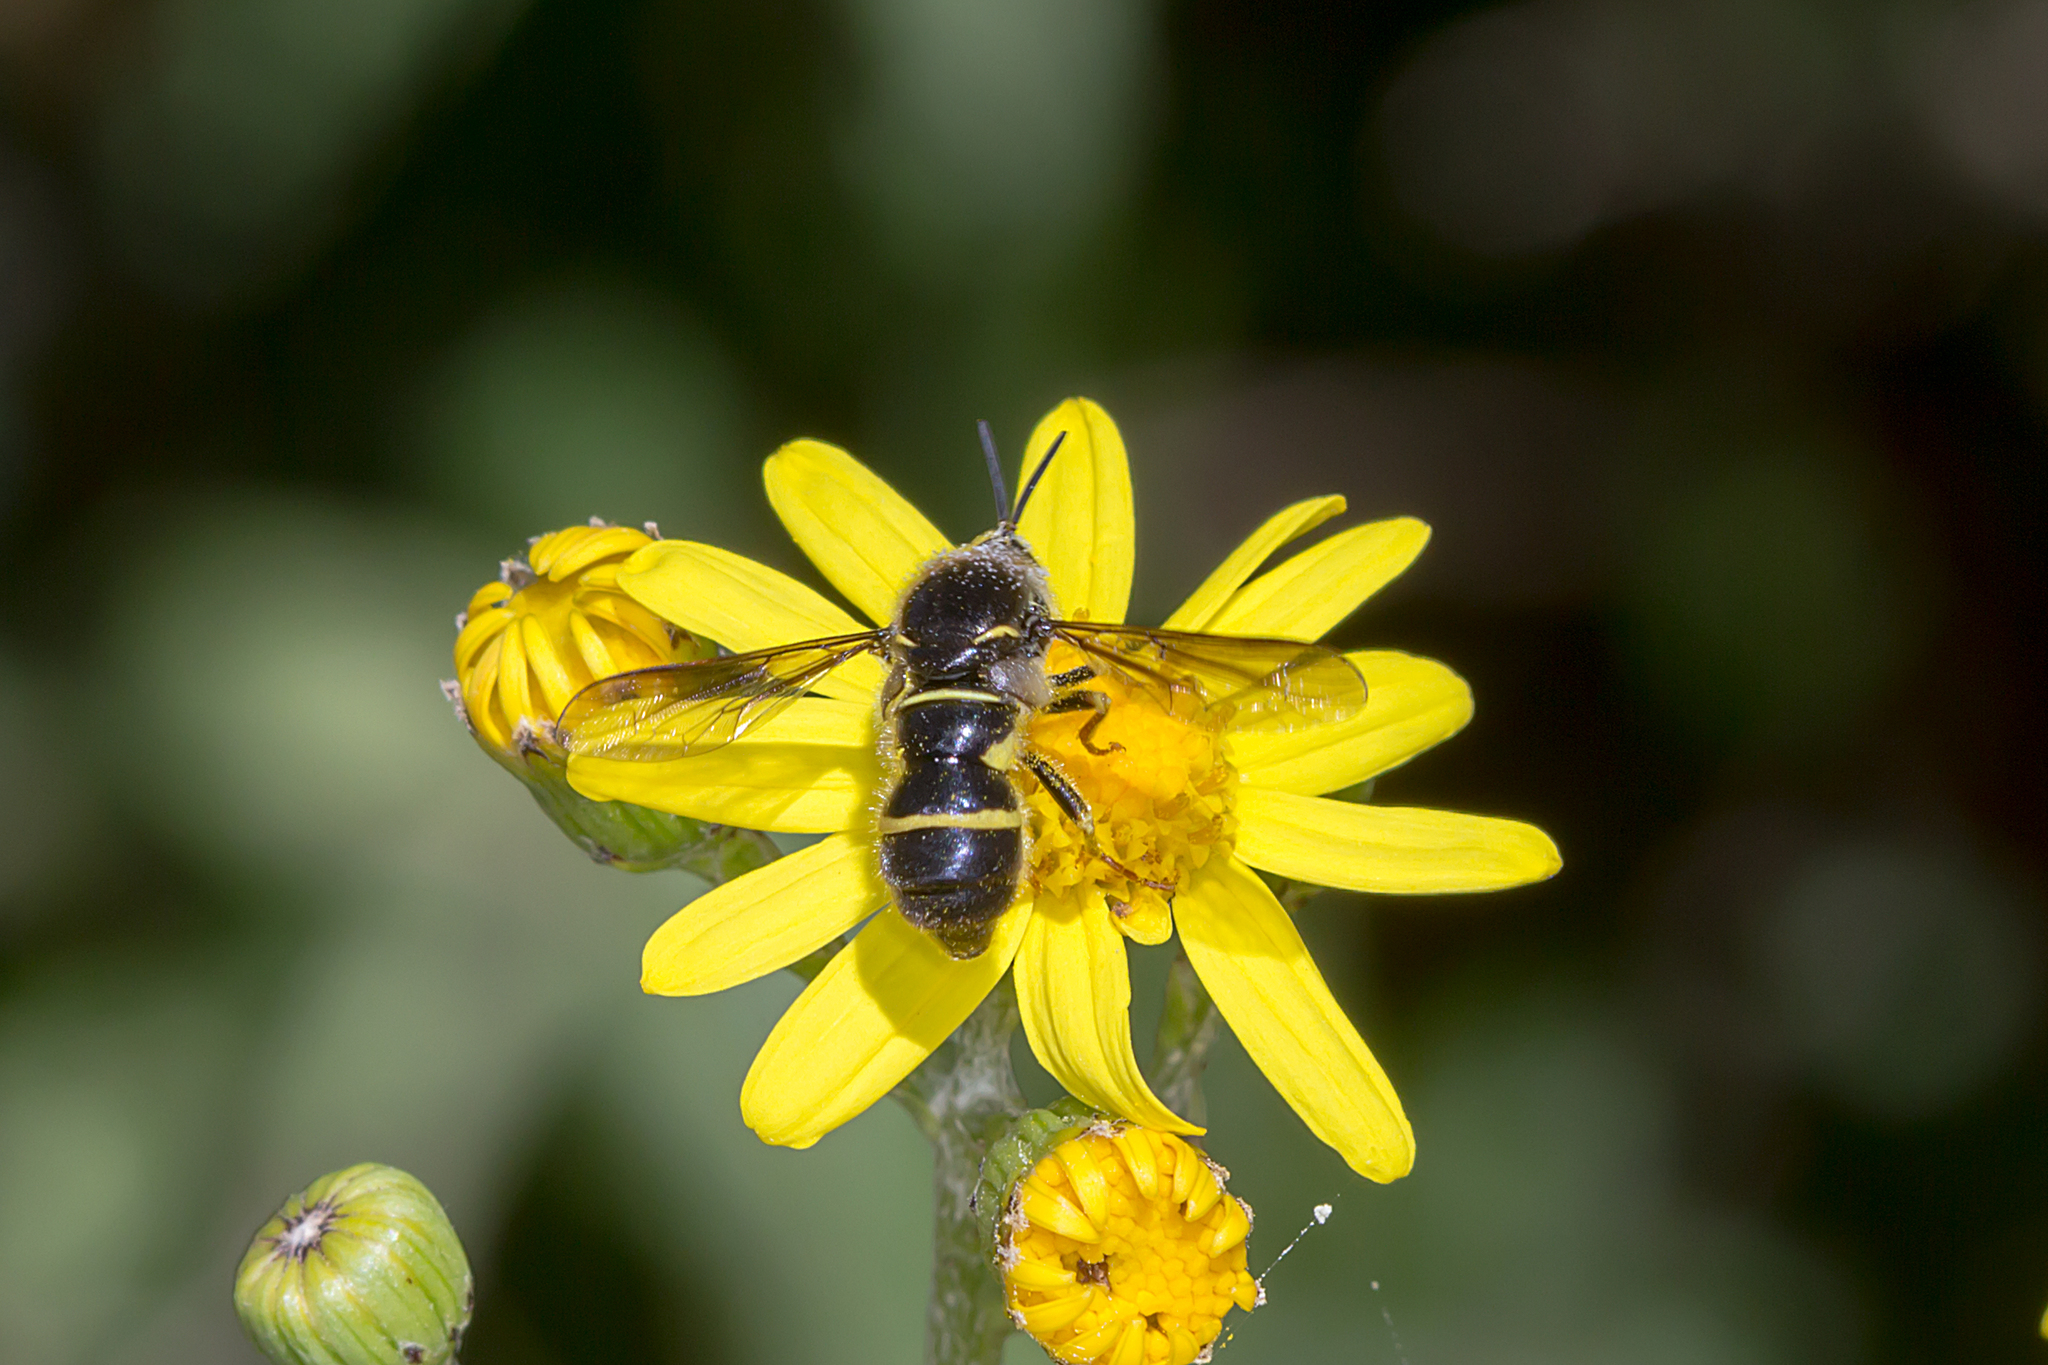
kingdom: Animalia
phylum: Arthropoda
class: Insecta
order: Diptera
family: Acroceridae
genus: Leucopsina
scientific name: Leucopsina burnsi
